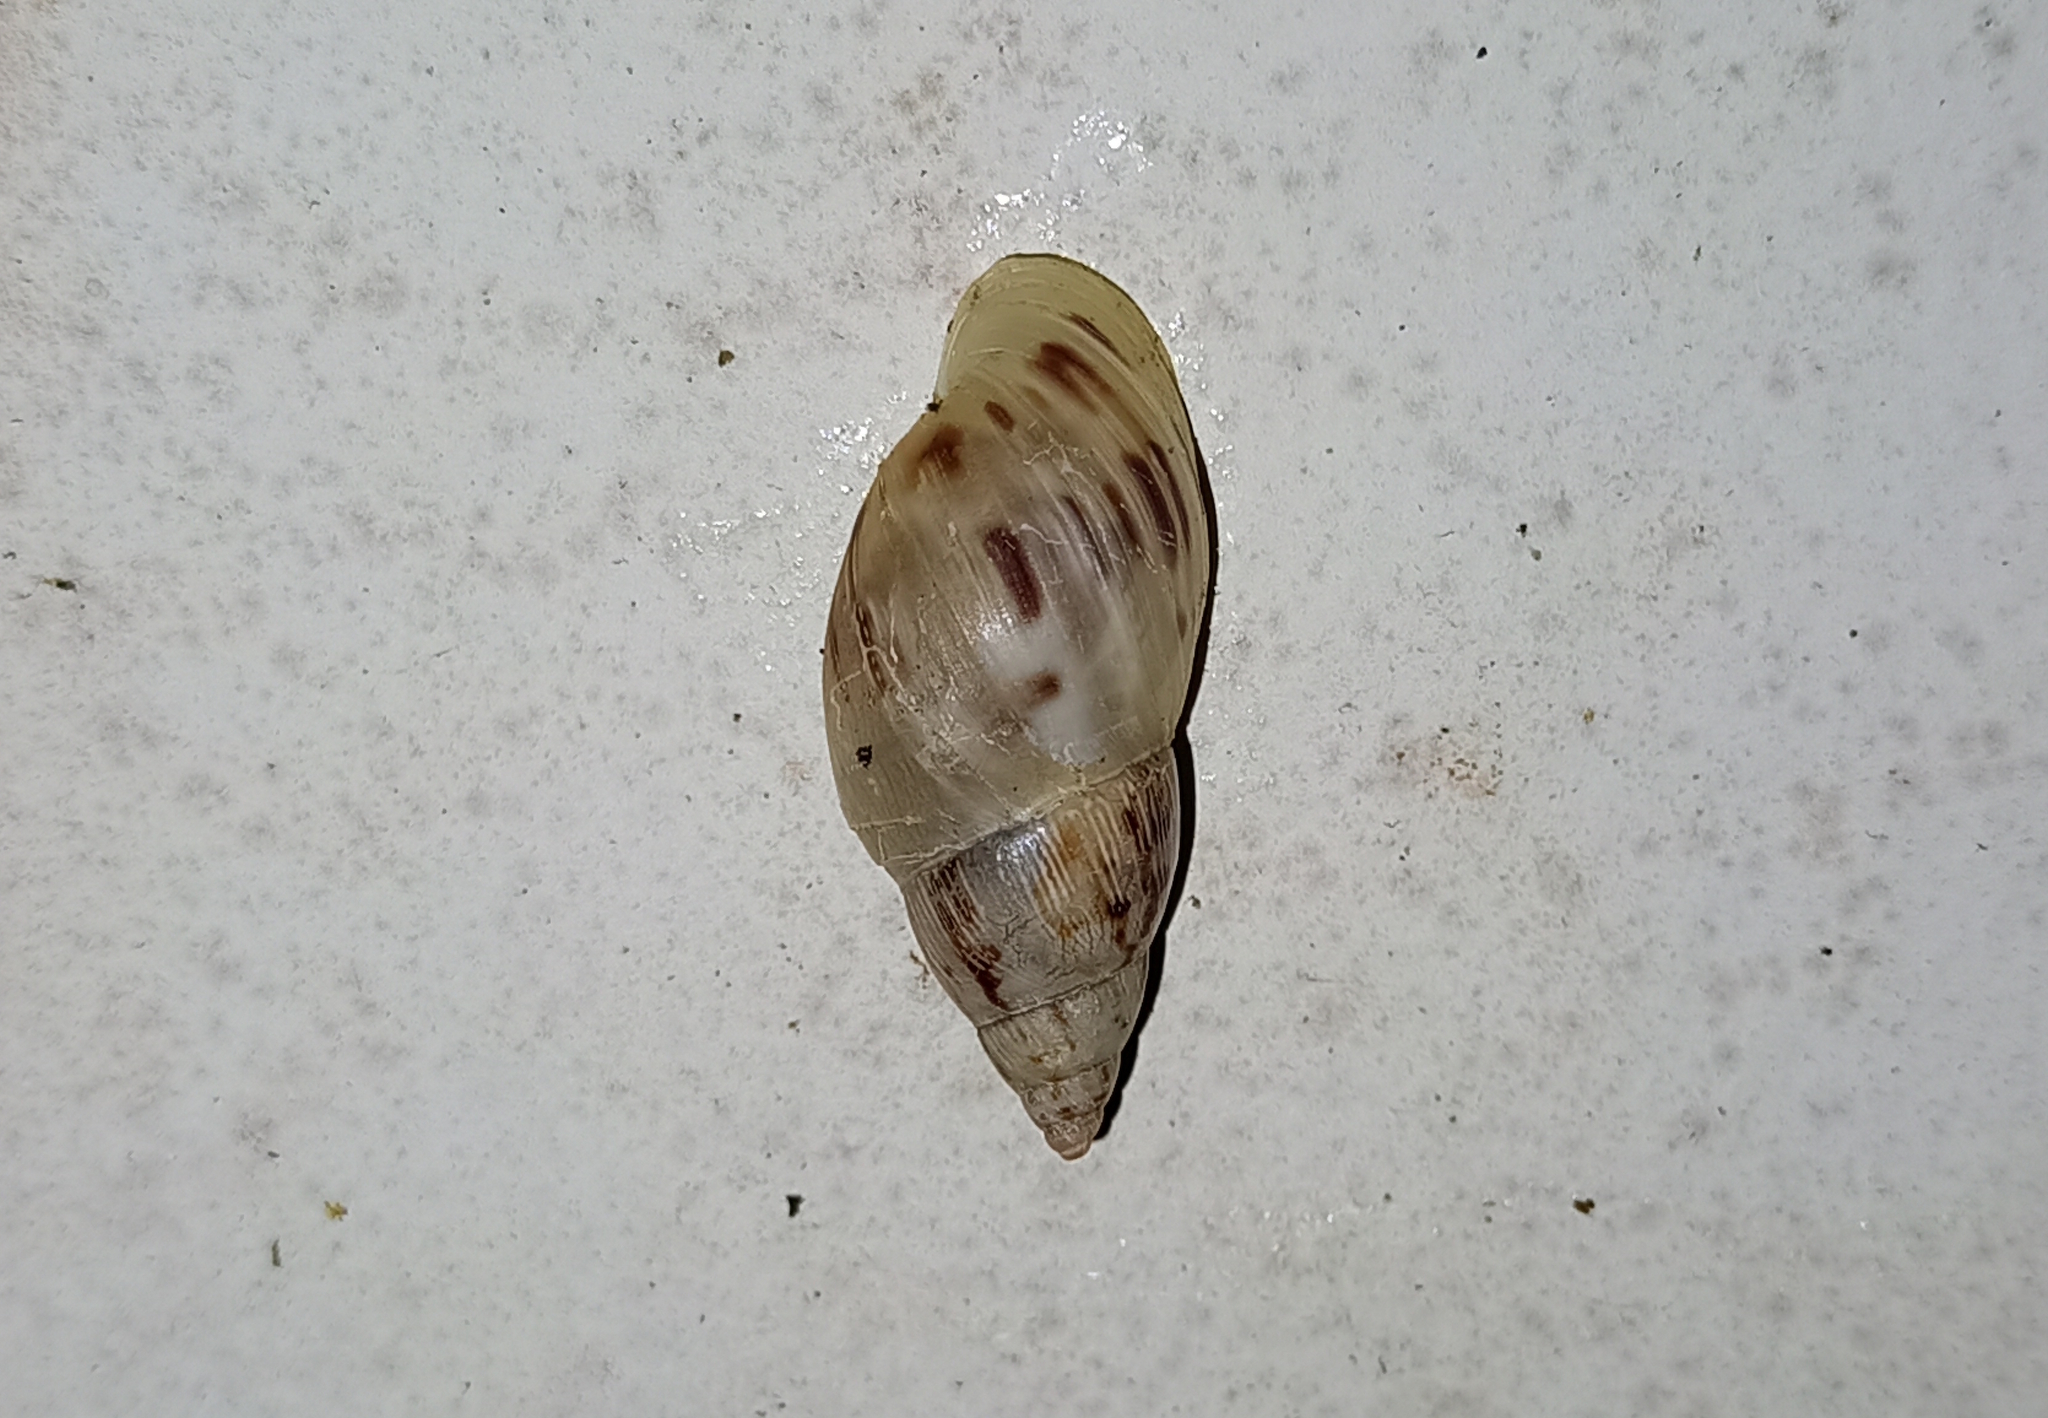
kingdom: Animalia
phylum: Mollusca
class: Gastropoda
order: Stylommatophora
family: Bulimulidae
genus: Drymaeus
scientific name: Drymaeus papyraceus
